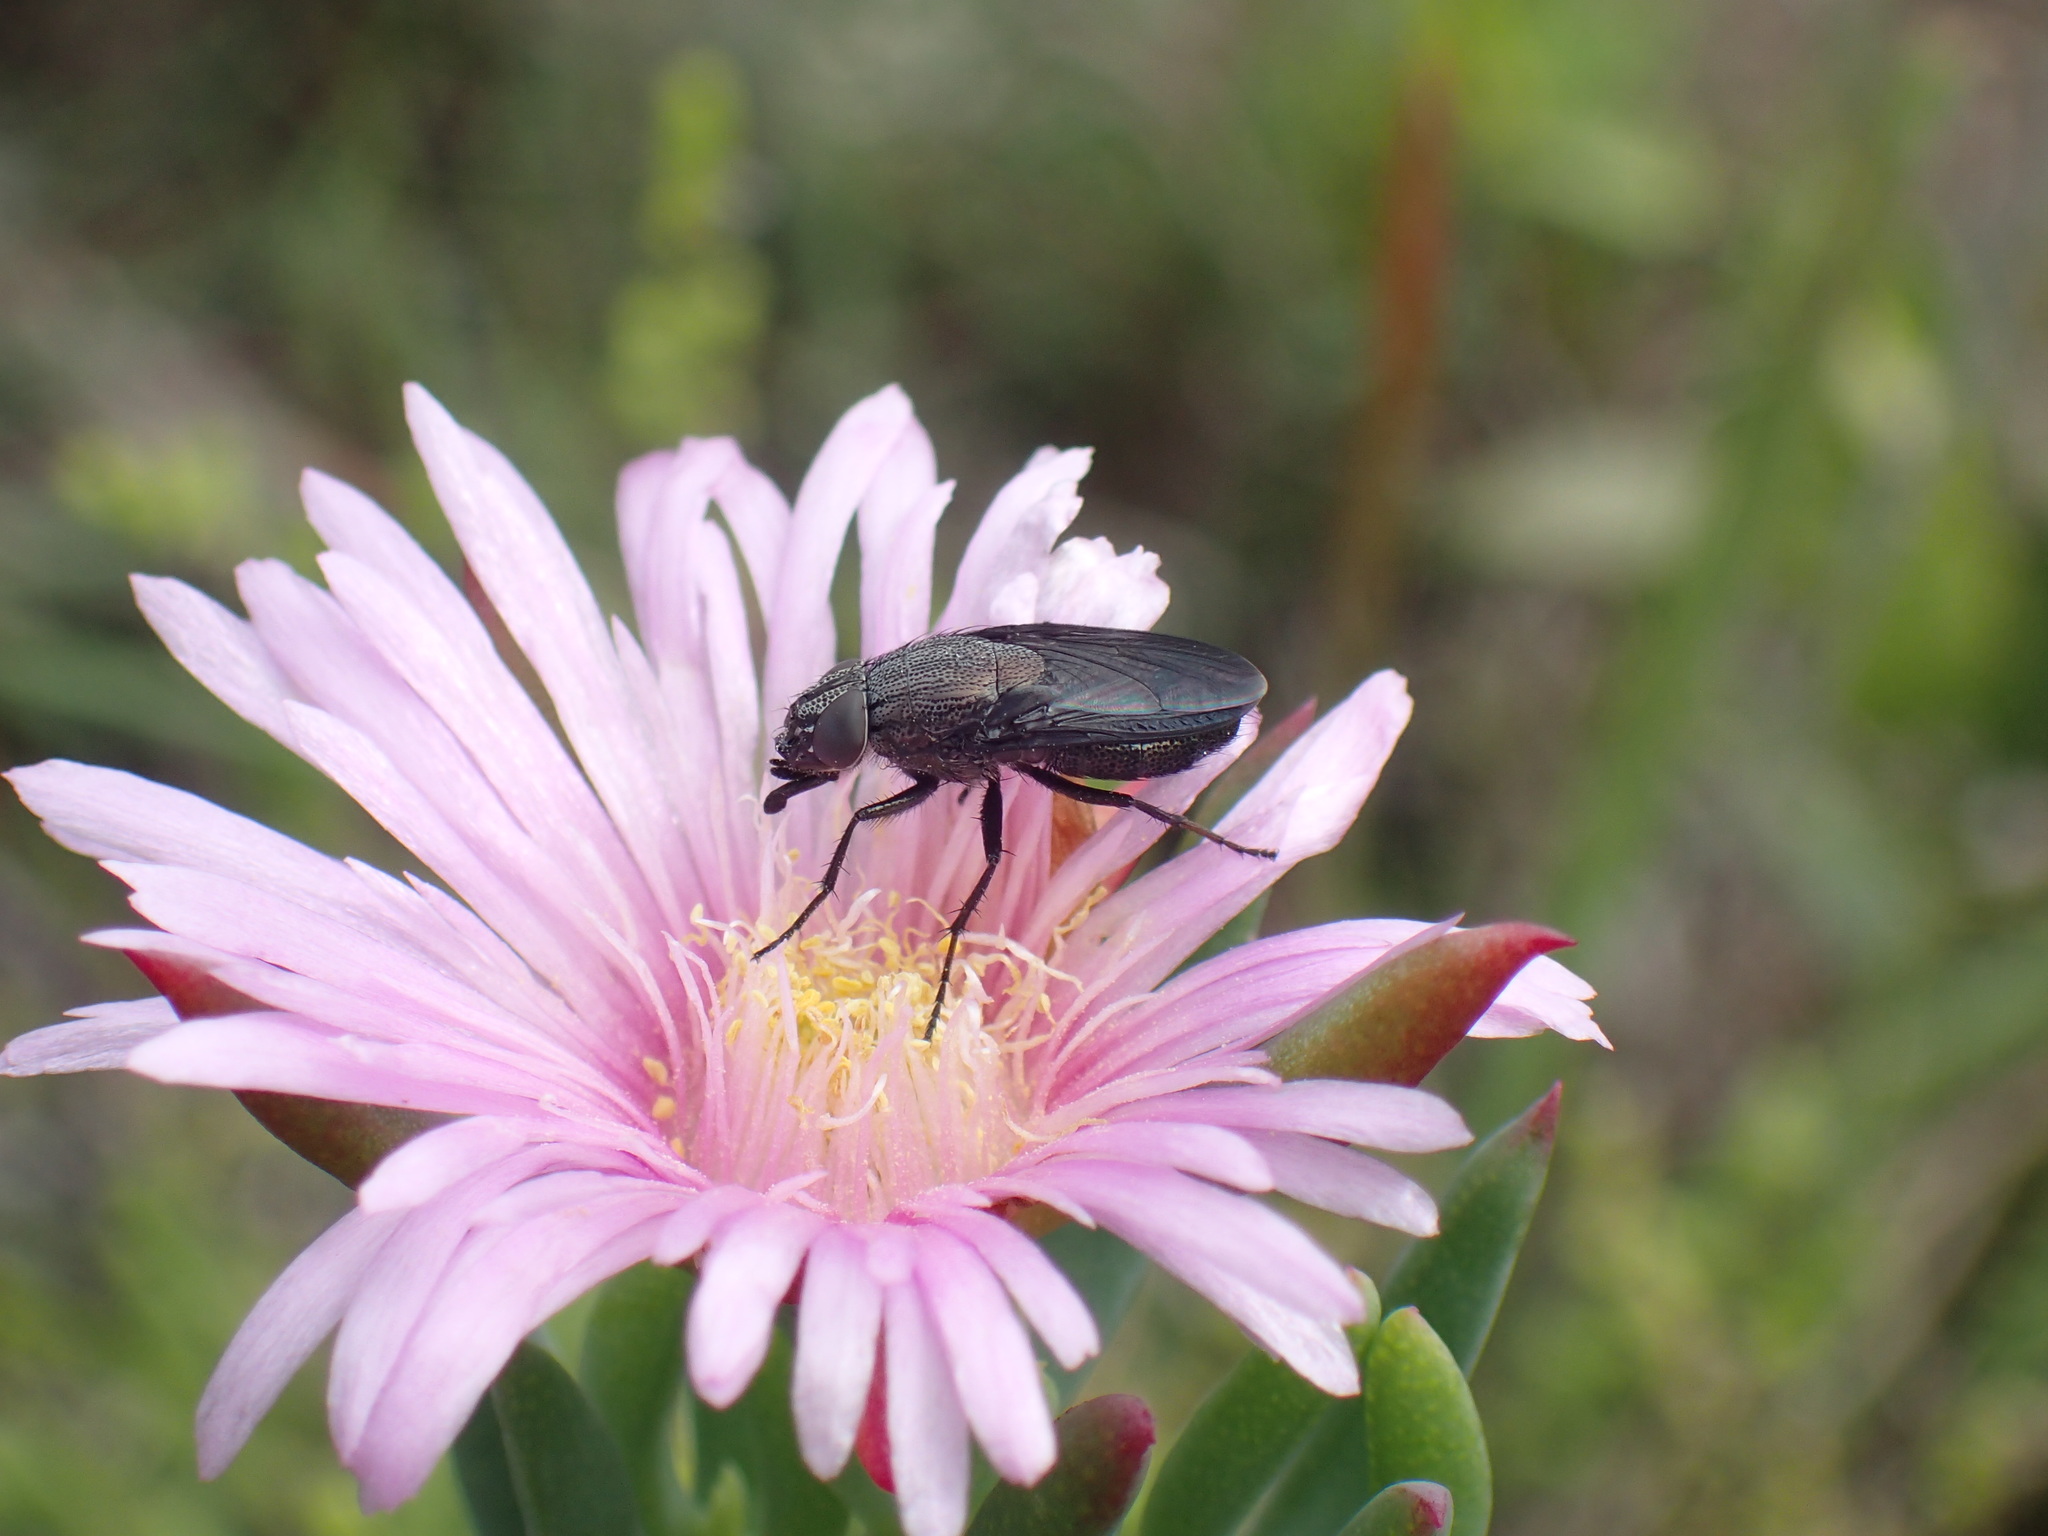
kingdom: Animalia
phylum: Arthropoda
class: Insecta
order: Diptera
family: Calliphoridae
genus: Cosmina
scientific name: Cosmina fuscipennis
